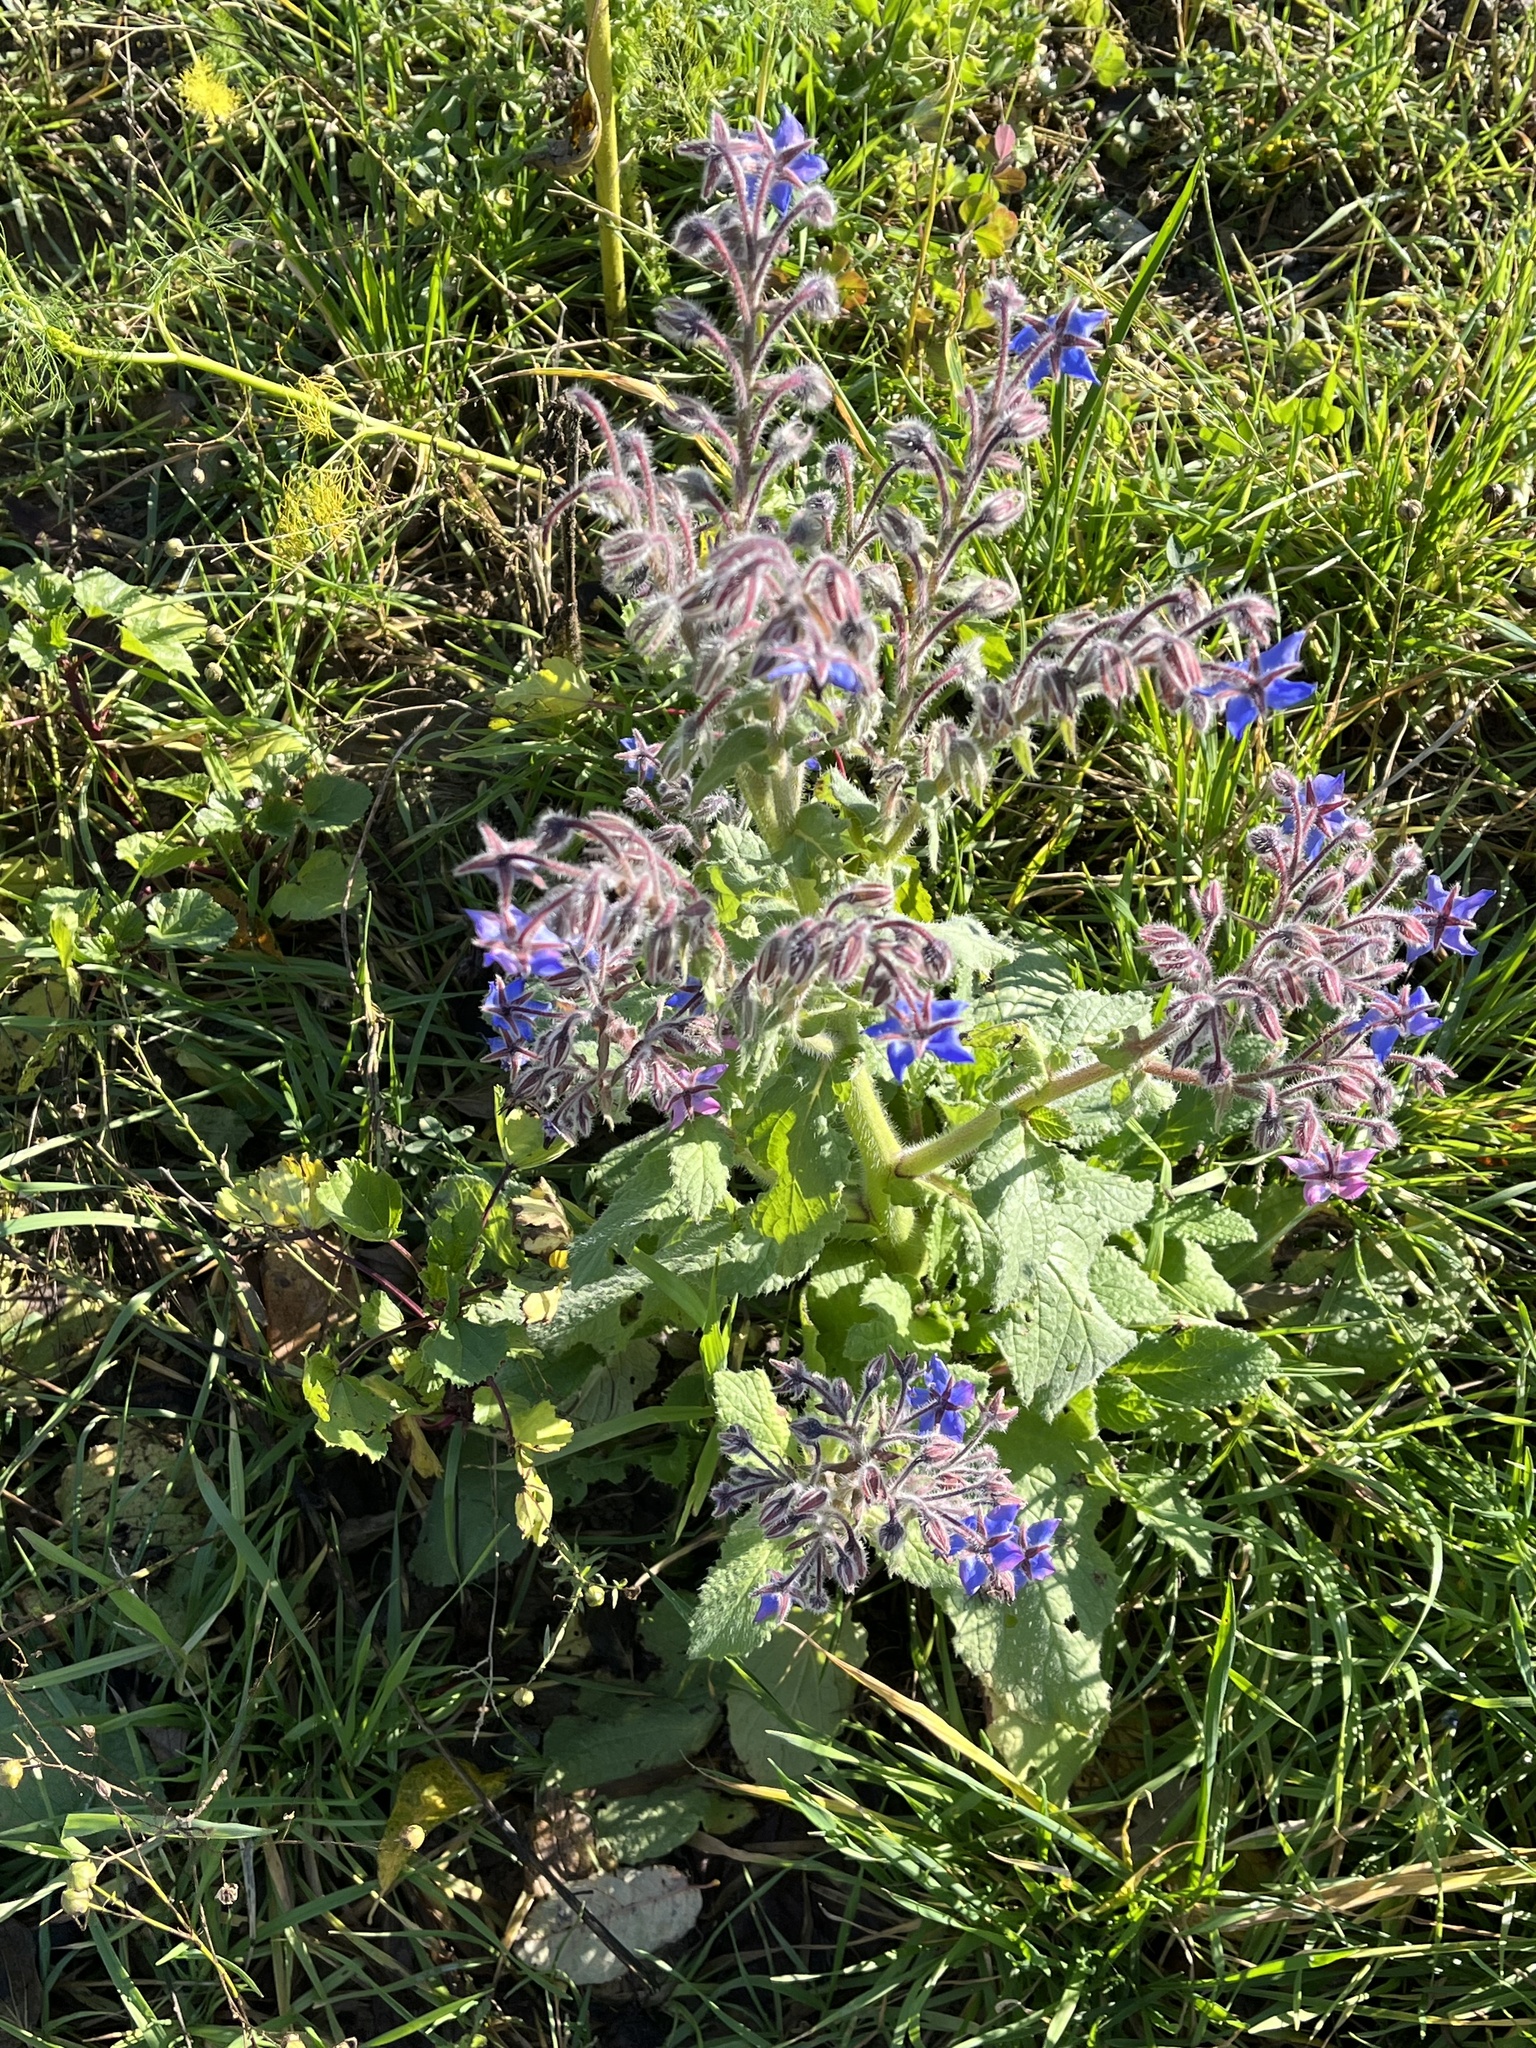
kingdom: Plantae
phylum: Tracheophyta
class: Magnoliopsida
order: Boraginales
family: Boraginaceae
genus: Borago
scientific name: Borago officinalis
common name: Borage
